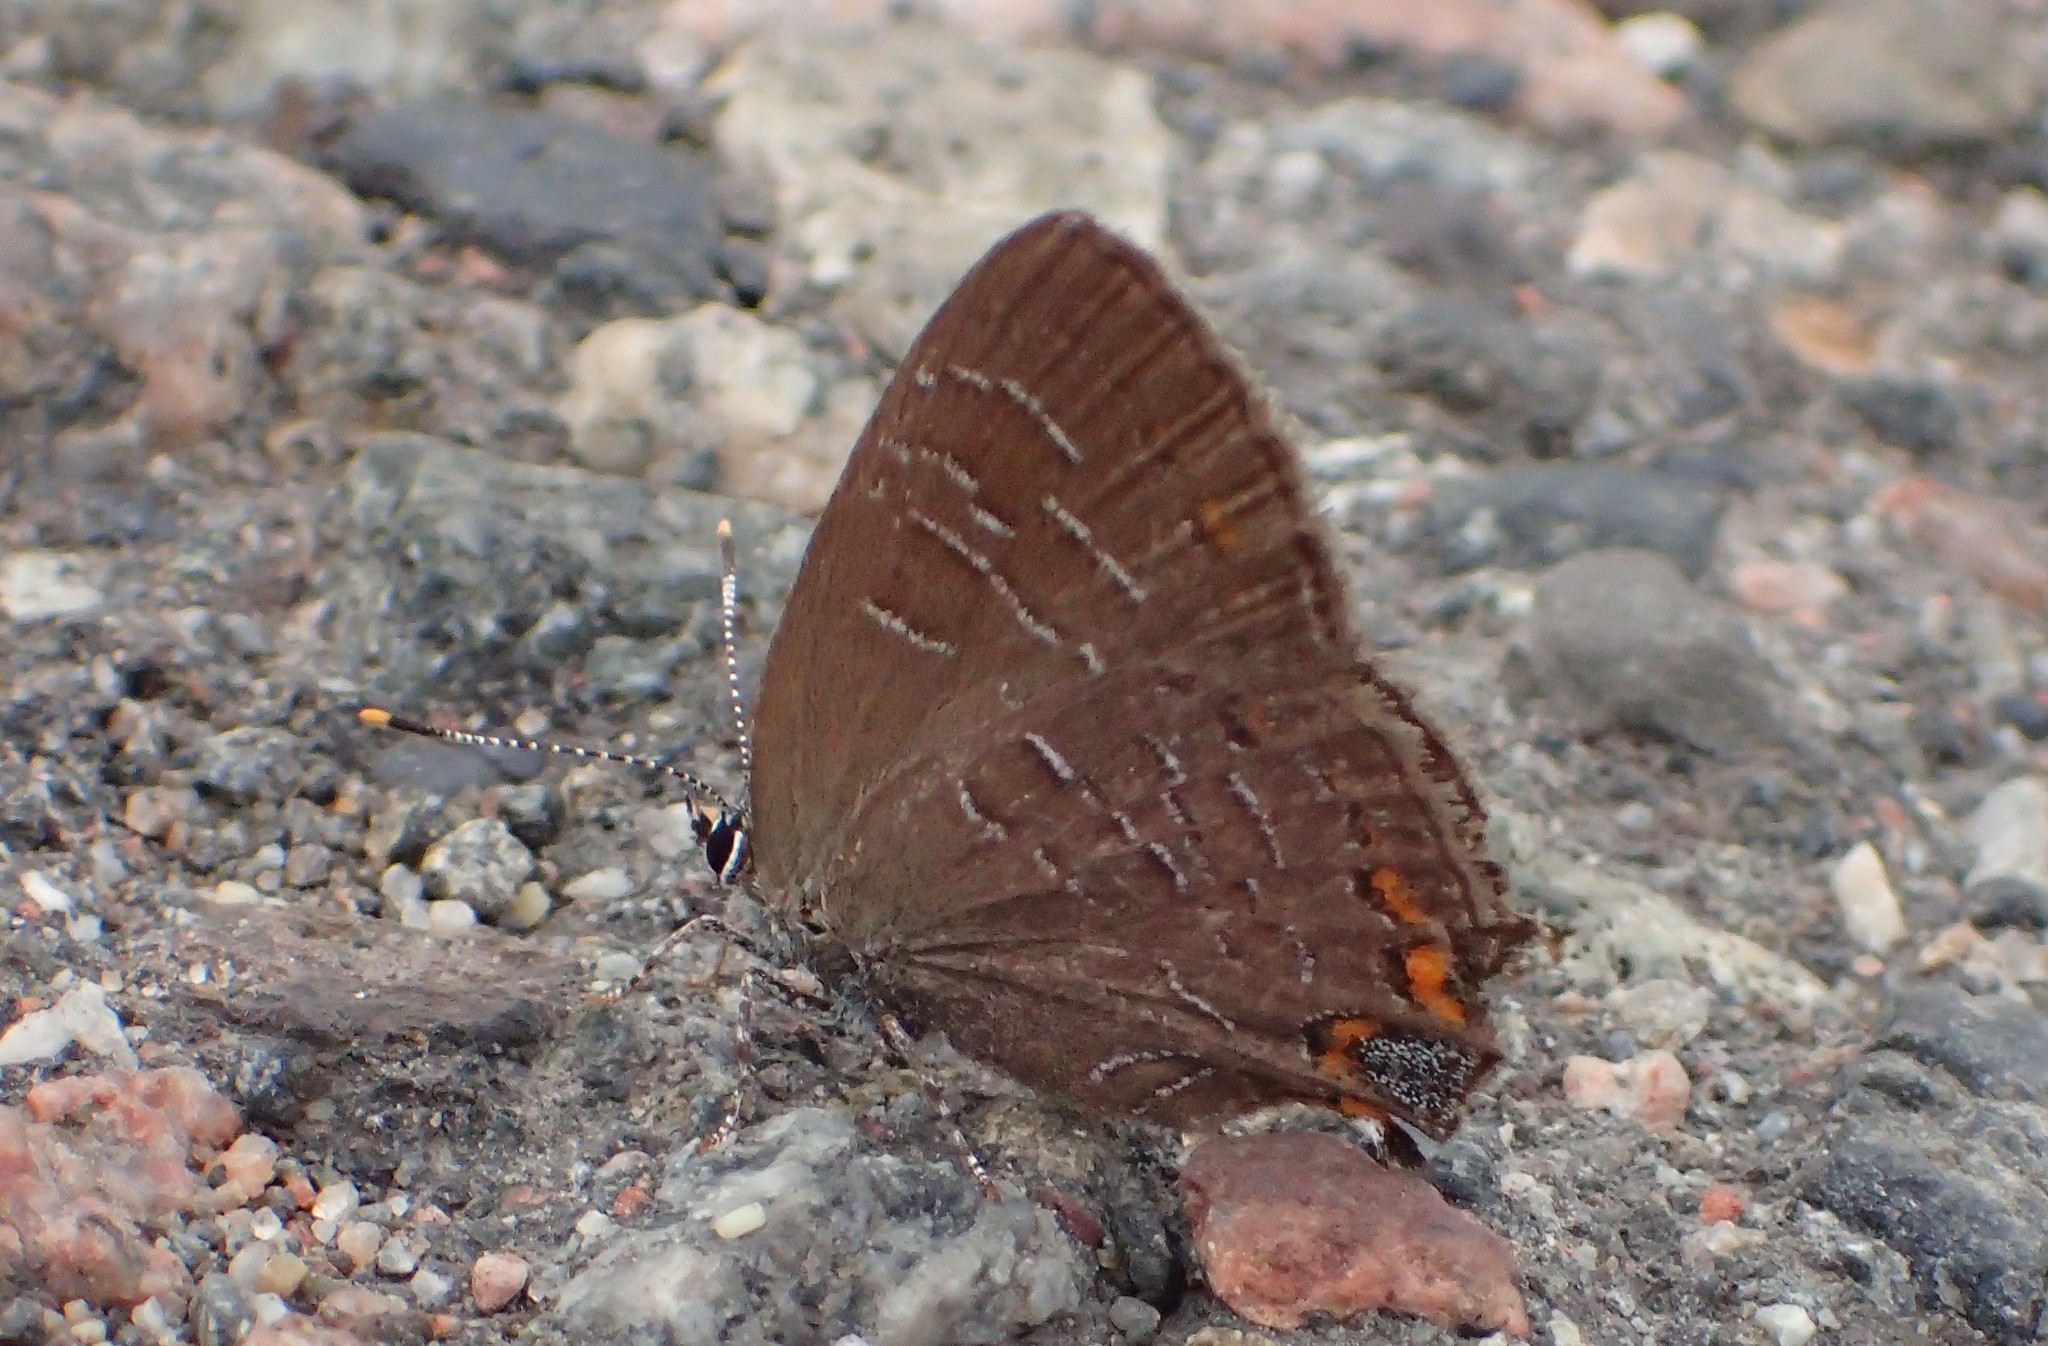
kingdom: Animalia
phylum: Arthropoda
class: Insecta
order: Lepidoptera
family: Lycaenidae
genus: Satyrium
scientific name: Satyrium liparops
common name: Striped hairstreak
